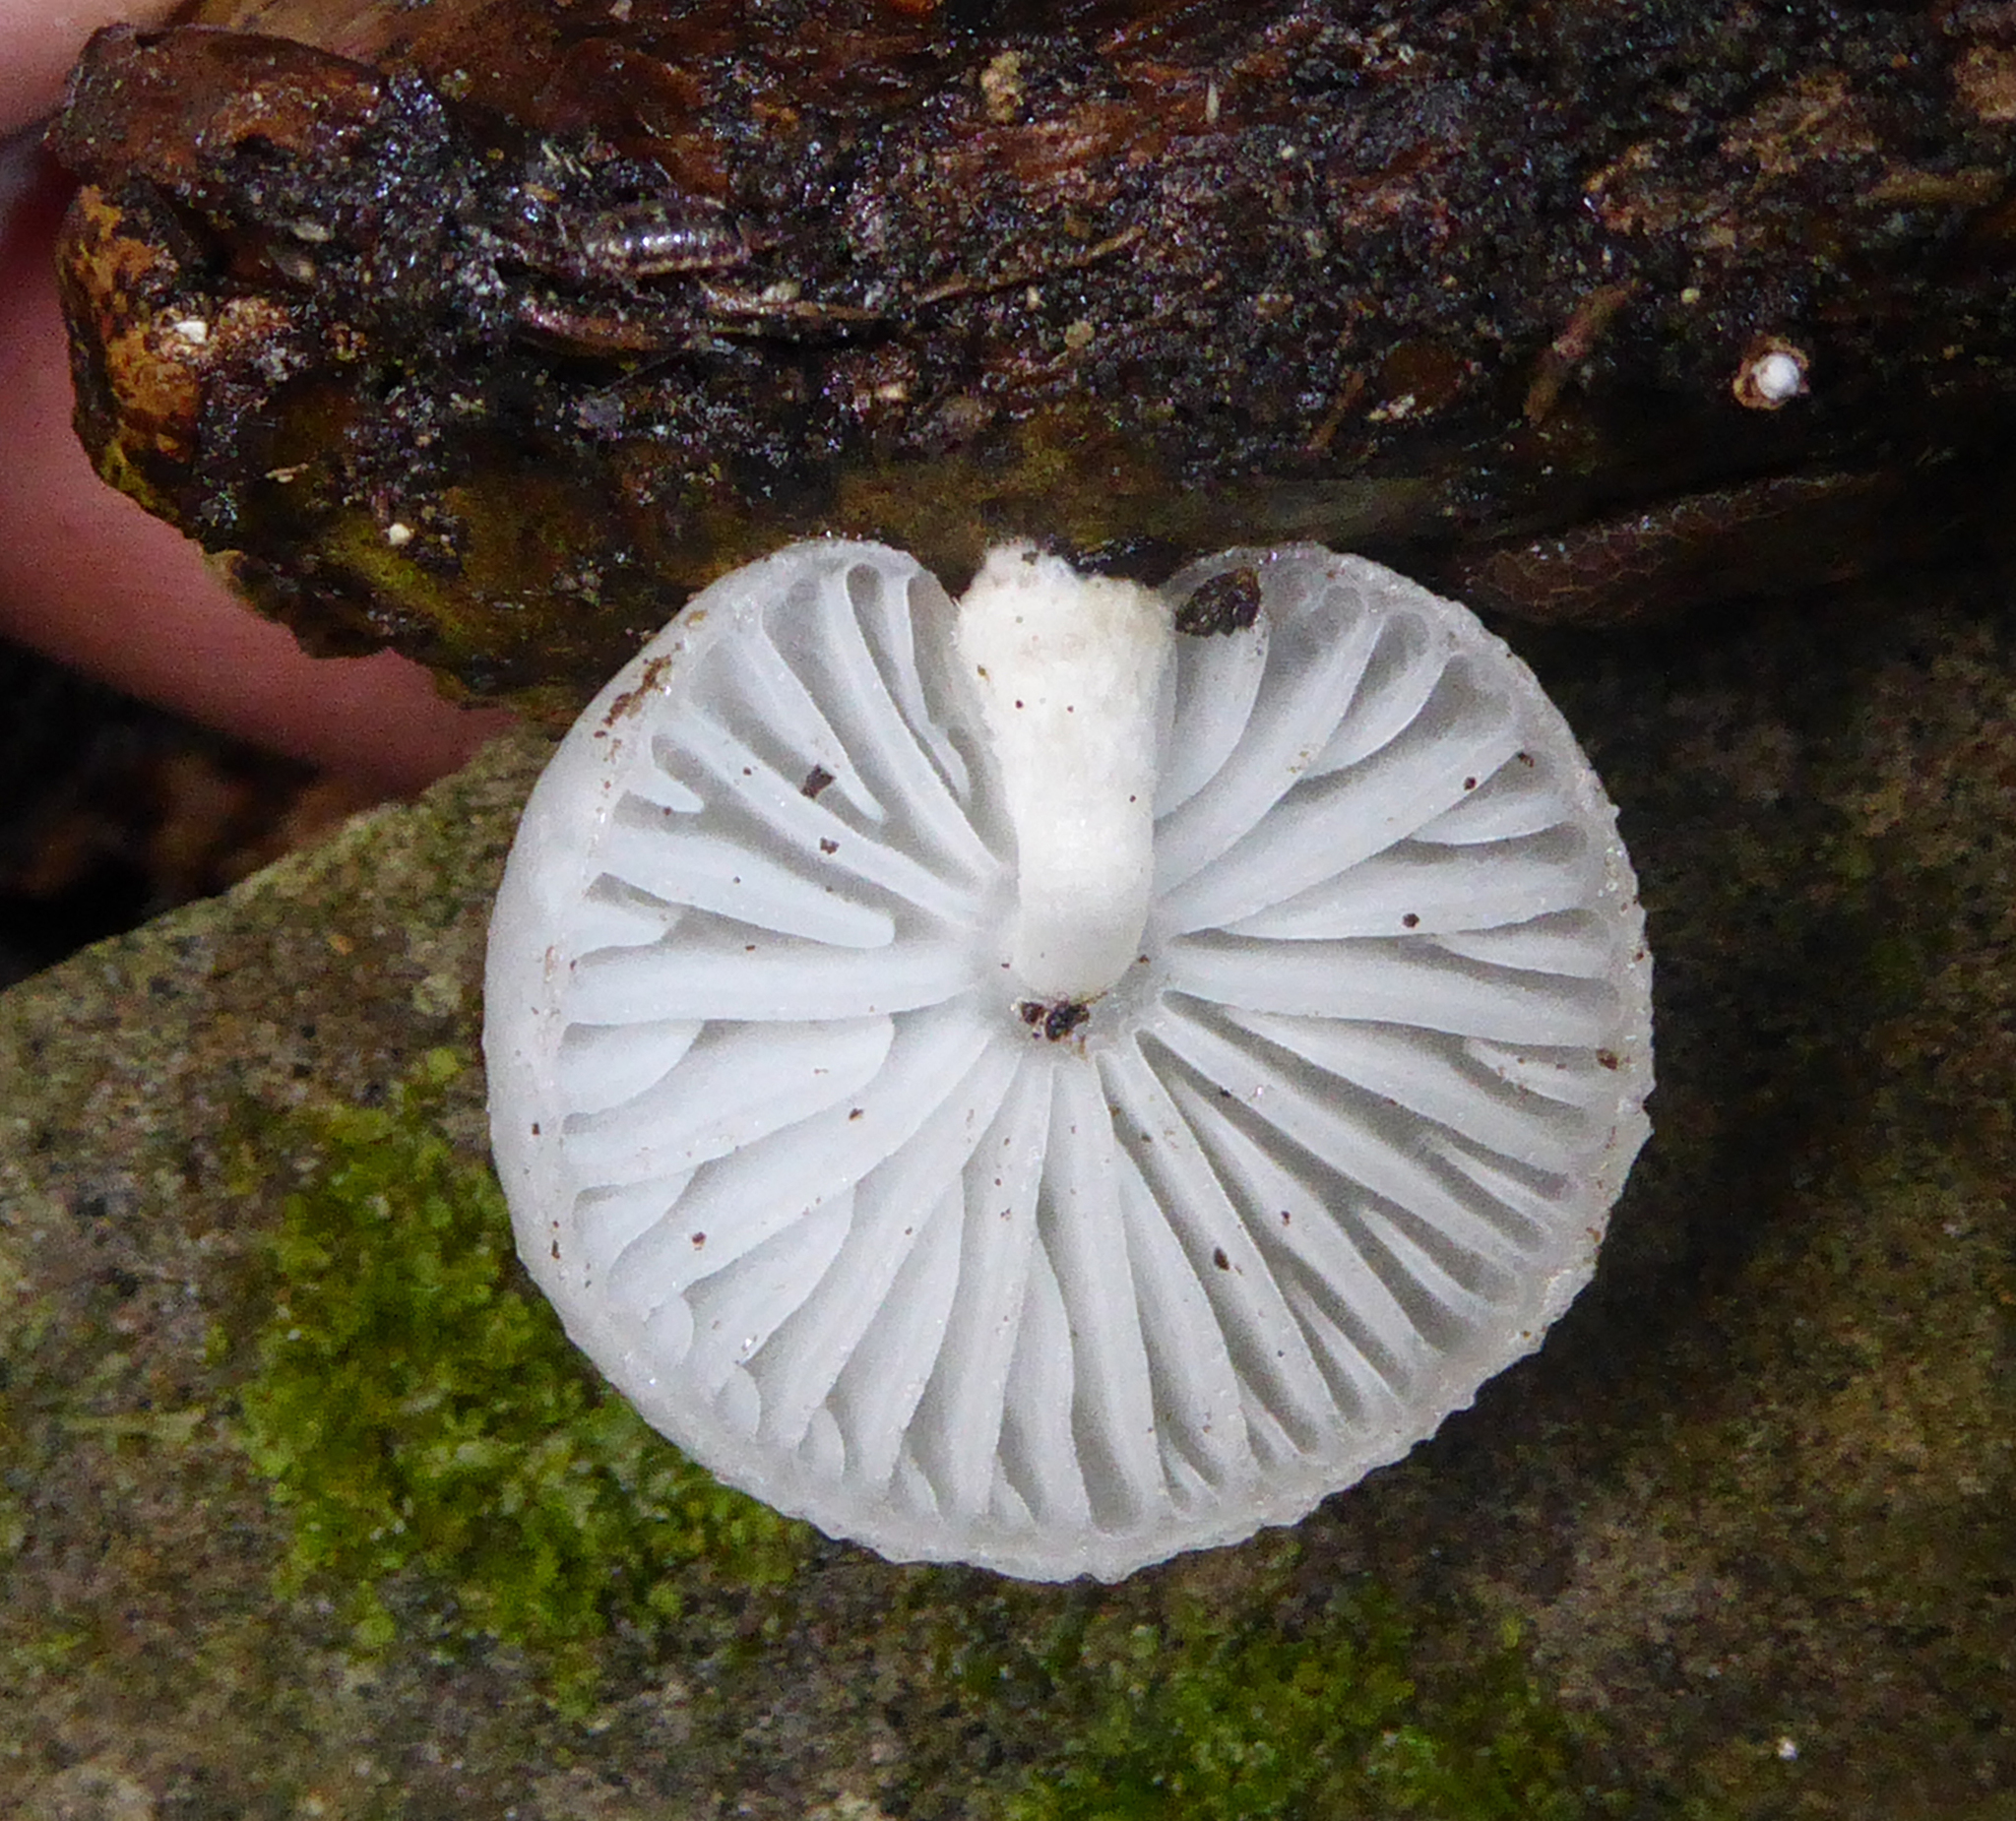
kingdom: Fungi
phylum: Basidiomycota
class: Agaricomycetes
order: Agaricales
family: Physalacriaceae
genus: Oudemansiella
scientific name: Oudemansiella australis
